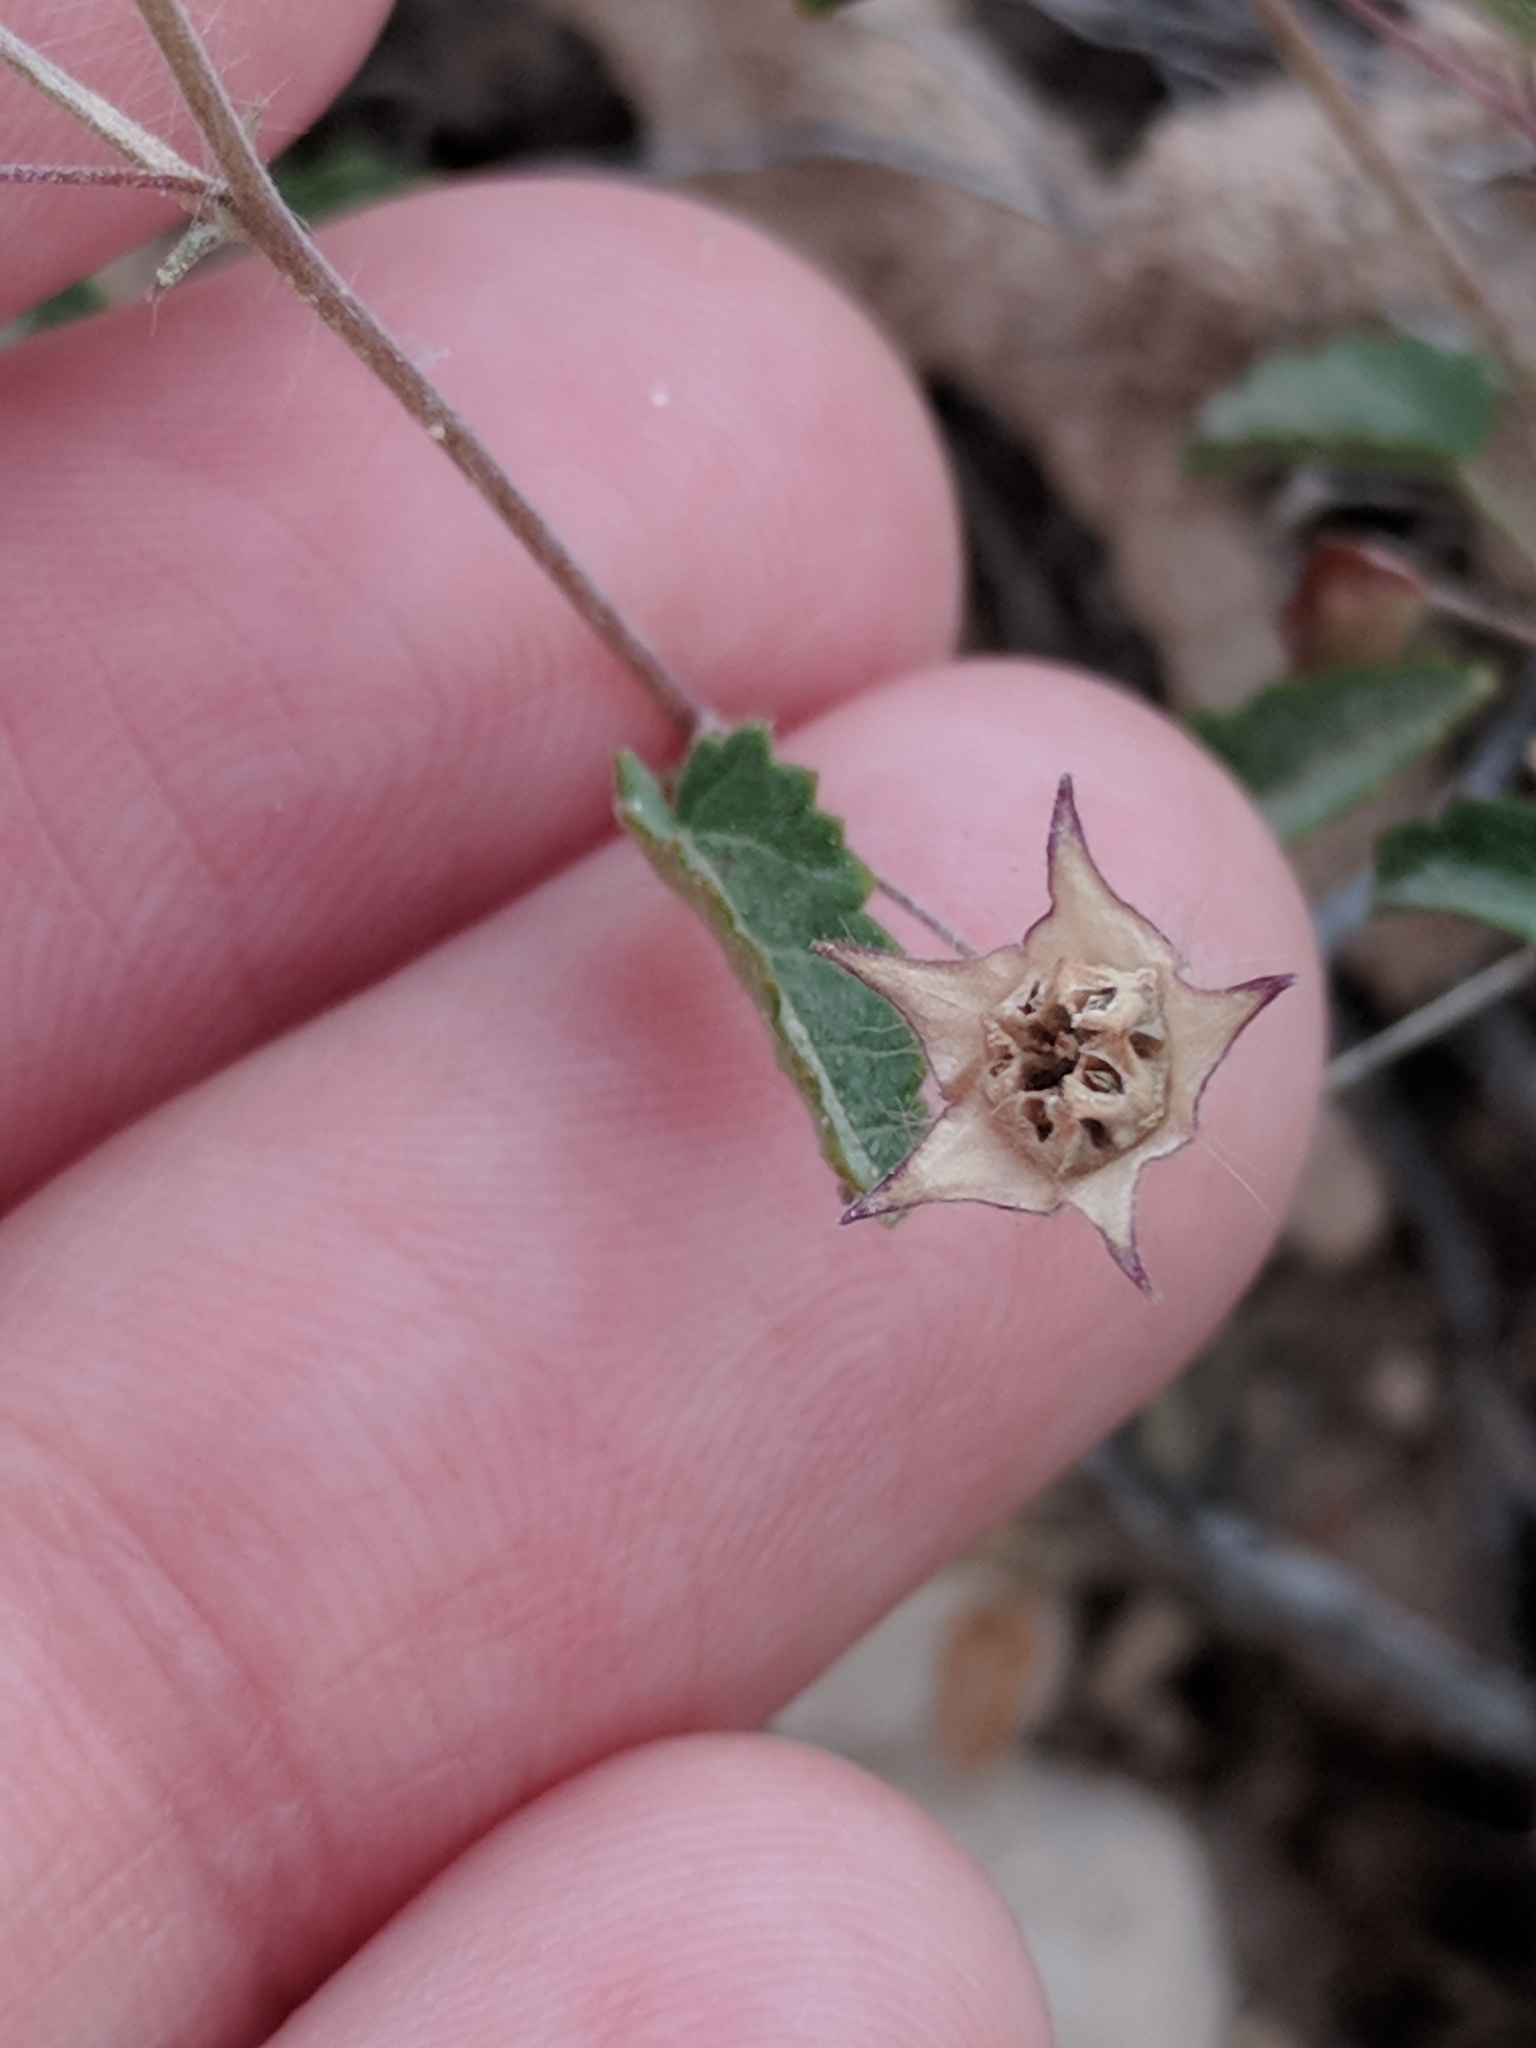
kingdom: Plantae
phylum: Tracheophyta
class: Magnoliopsida
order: Malvales
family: Malvaceae
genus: Sida
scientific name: Sida abutilifolia
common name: Spreading fanpetals
